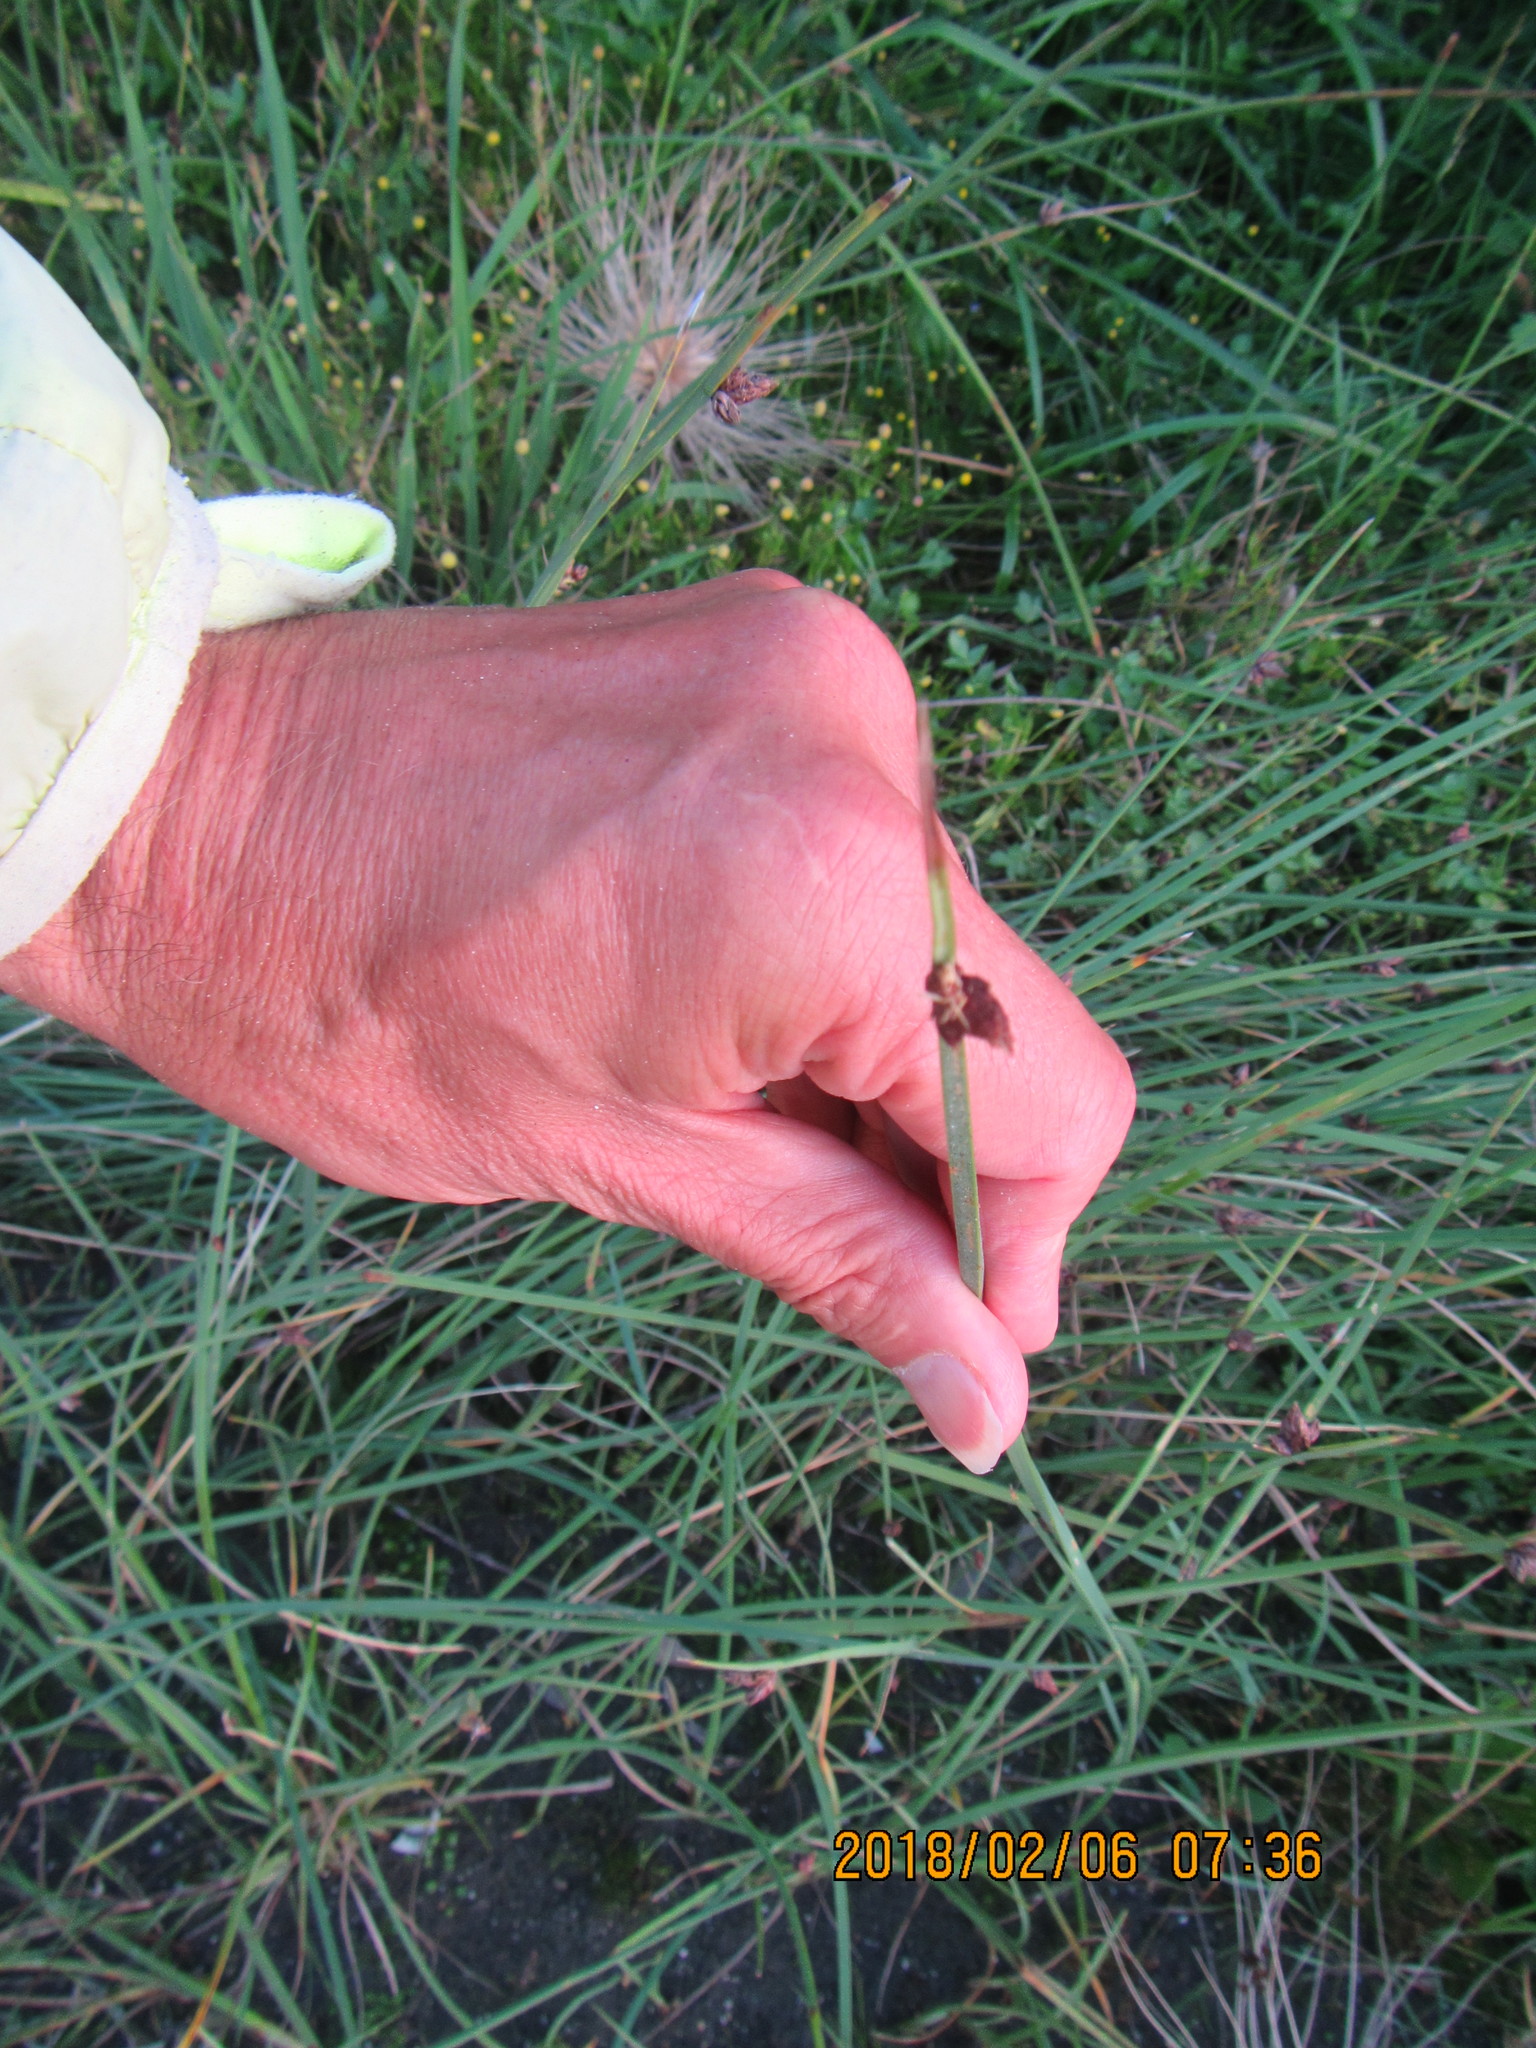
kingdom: Plantae
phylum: Tracheophyta
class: Liliopsida
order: Poales
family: Cyperaceae
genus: Schoenoplectus
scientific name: Schoenoplectus pungens
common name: Sharp club-rush
